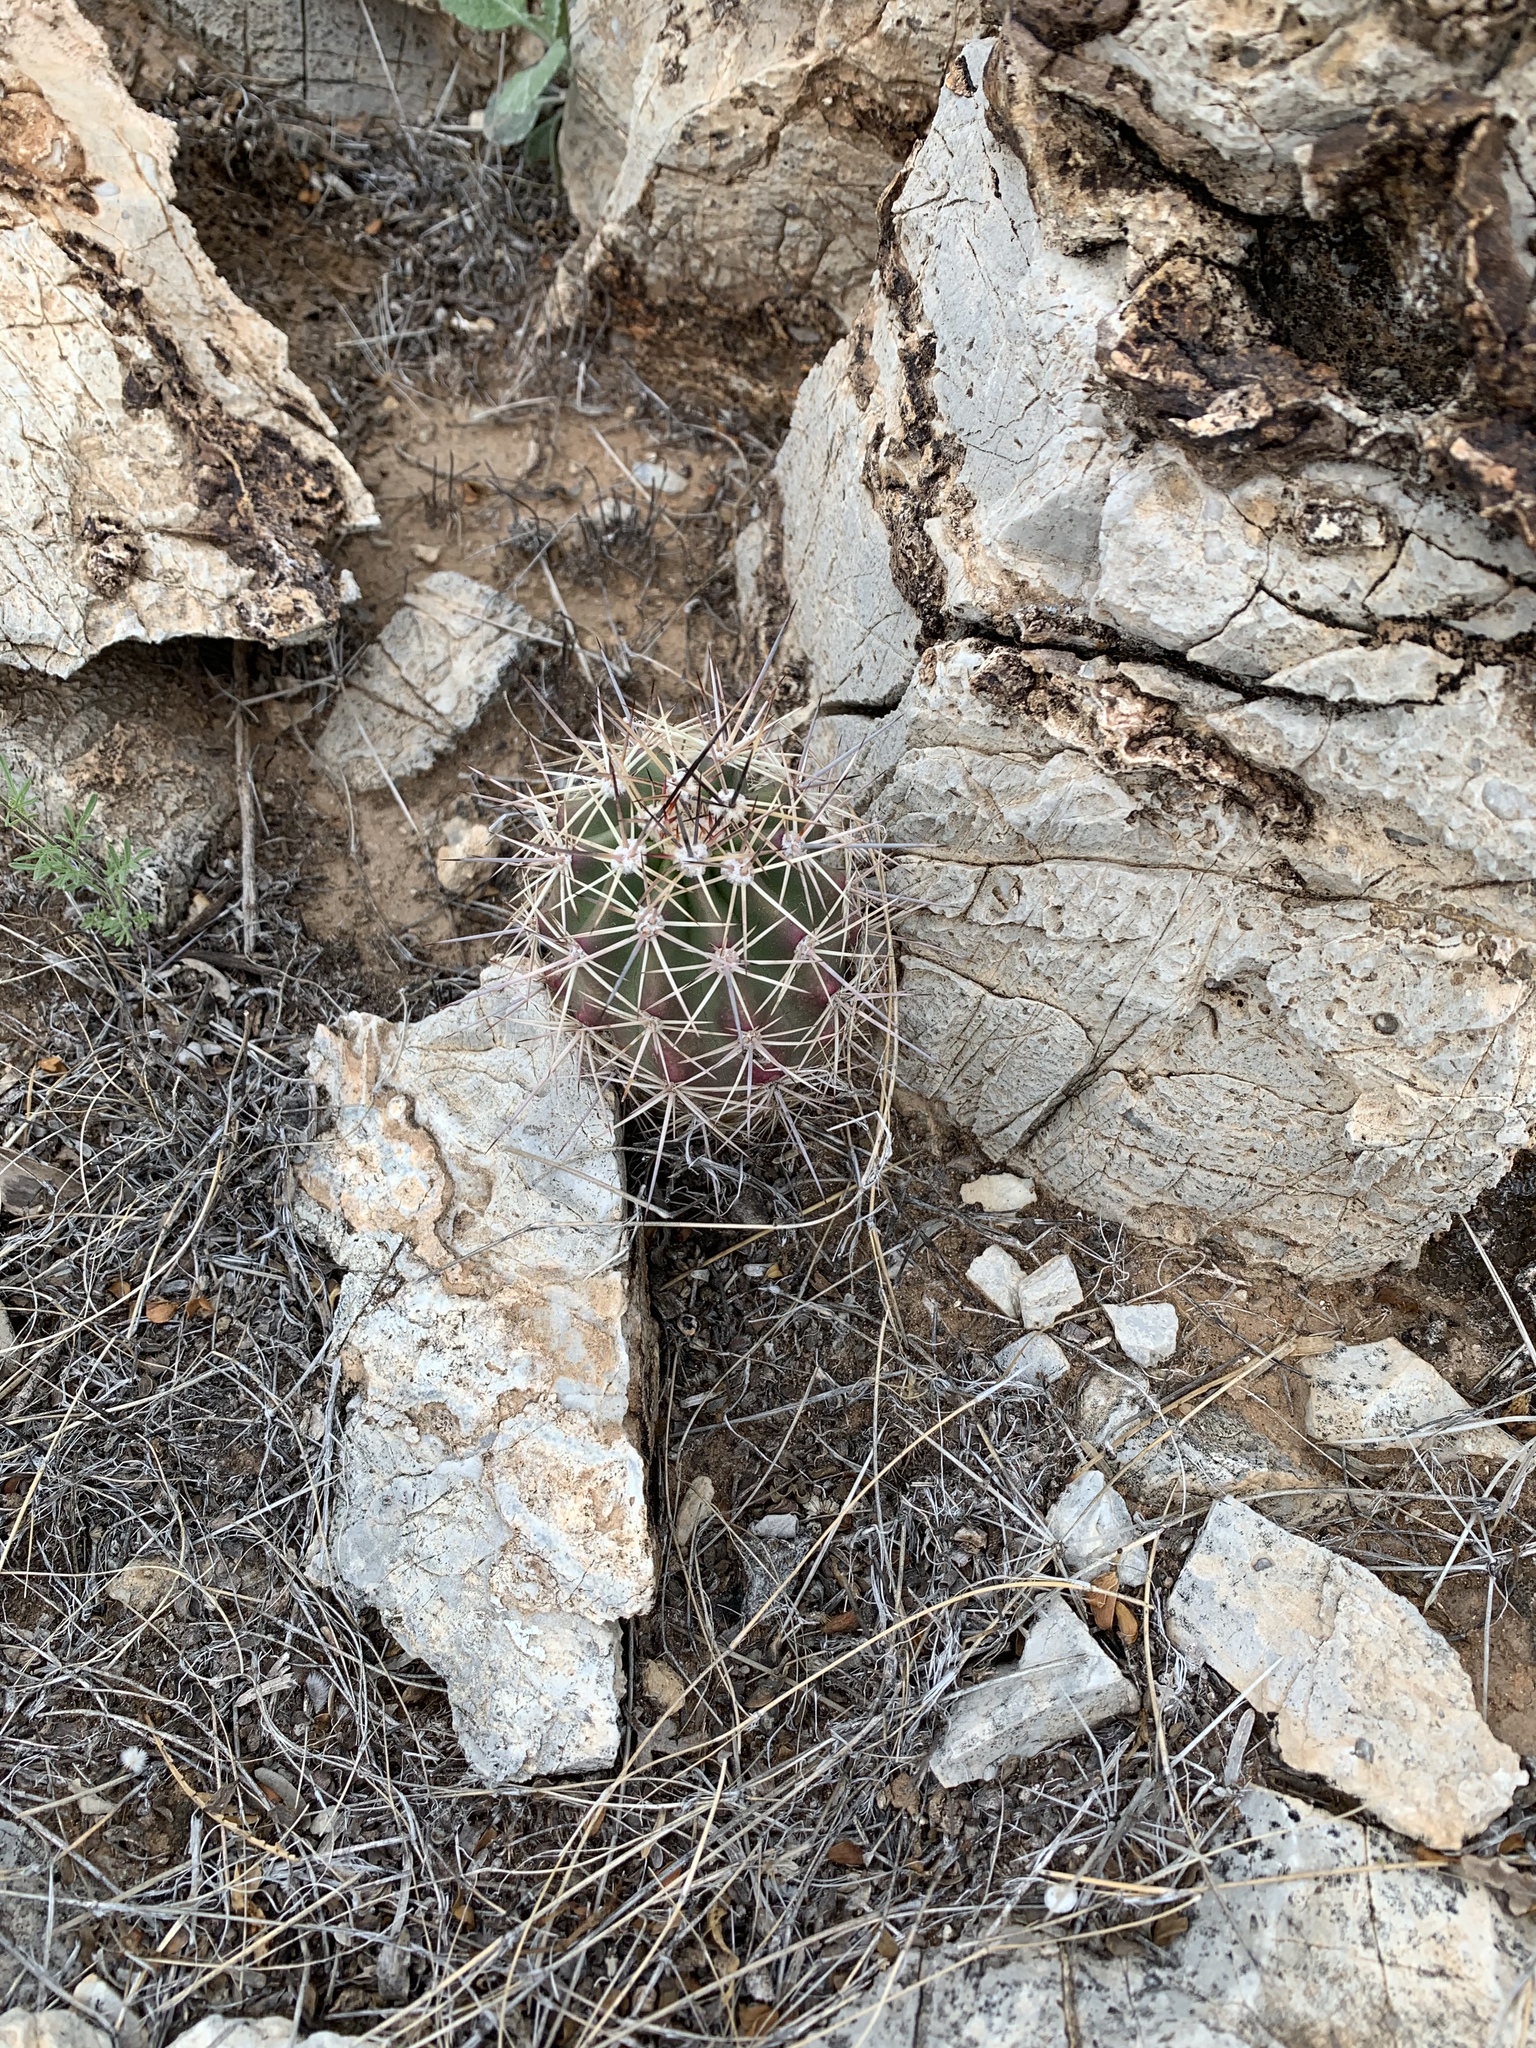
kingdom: Plantae
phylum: Tracheophyta
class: Magnoliopsida
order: Caryophyllales
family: Cactaceae
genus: Echinocereus
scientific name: Echinocereus coccineus
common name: Scarlet hedgehog cactus
